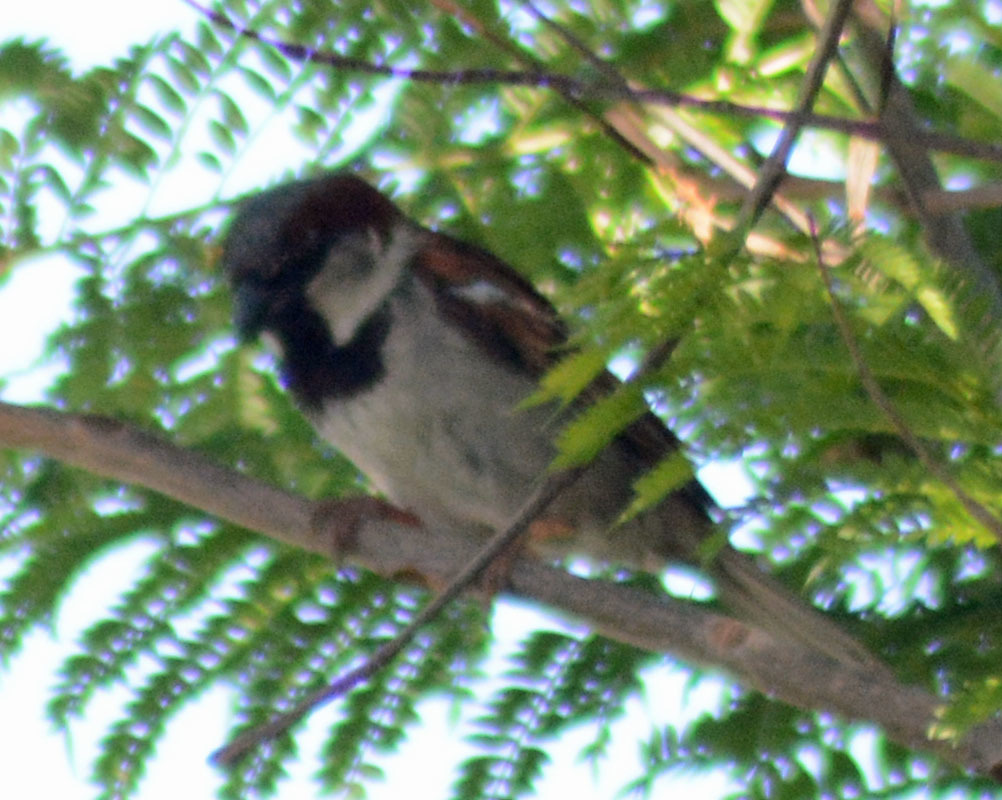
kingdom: Animalia
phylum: Chordata
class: Aves
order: Passeriformes
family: Passeridae
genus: Passer
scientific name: Passer domesticus
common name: House sparrow
